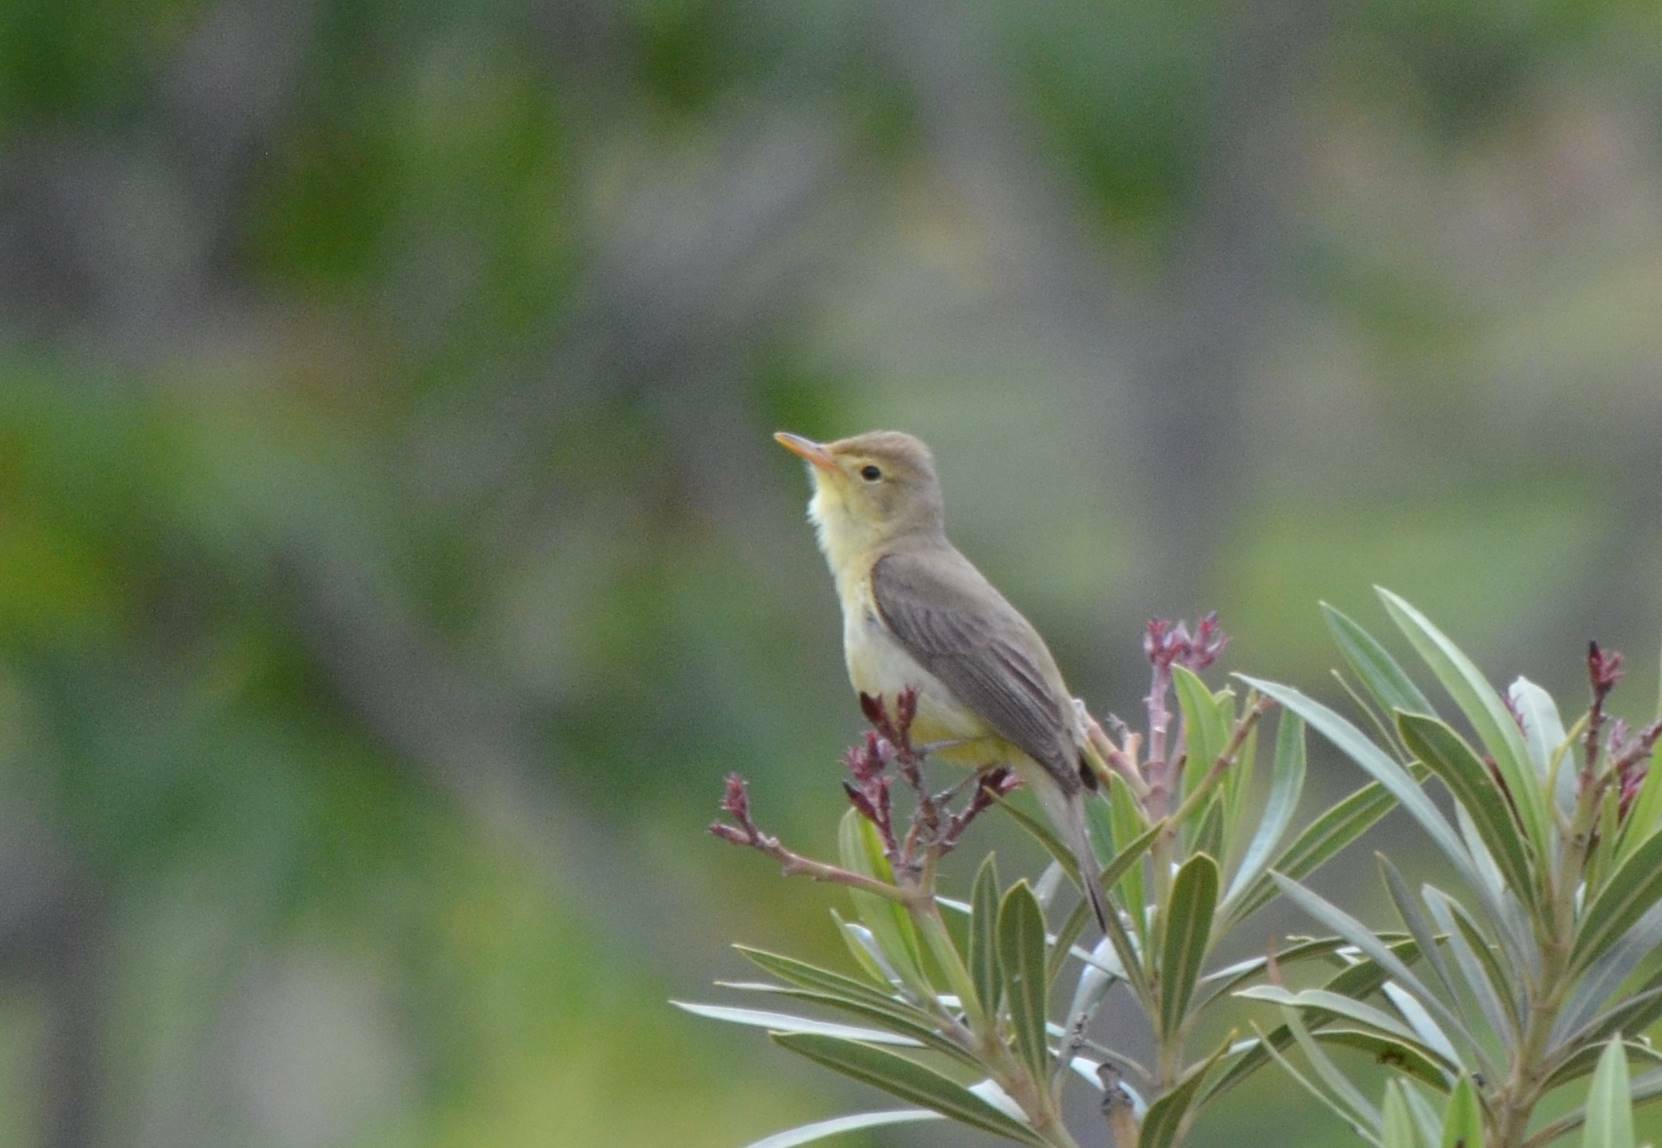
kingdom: Animalia
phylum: Chordata
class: Aves
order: Passeriformes
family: Acrocephalidae
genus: Hippolais
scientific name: Hippolais polyglotta
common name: Melodious warbler
